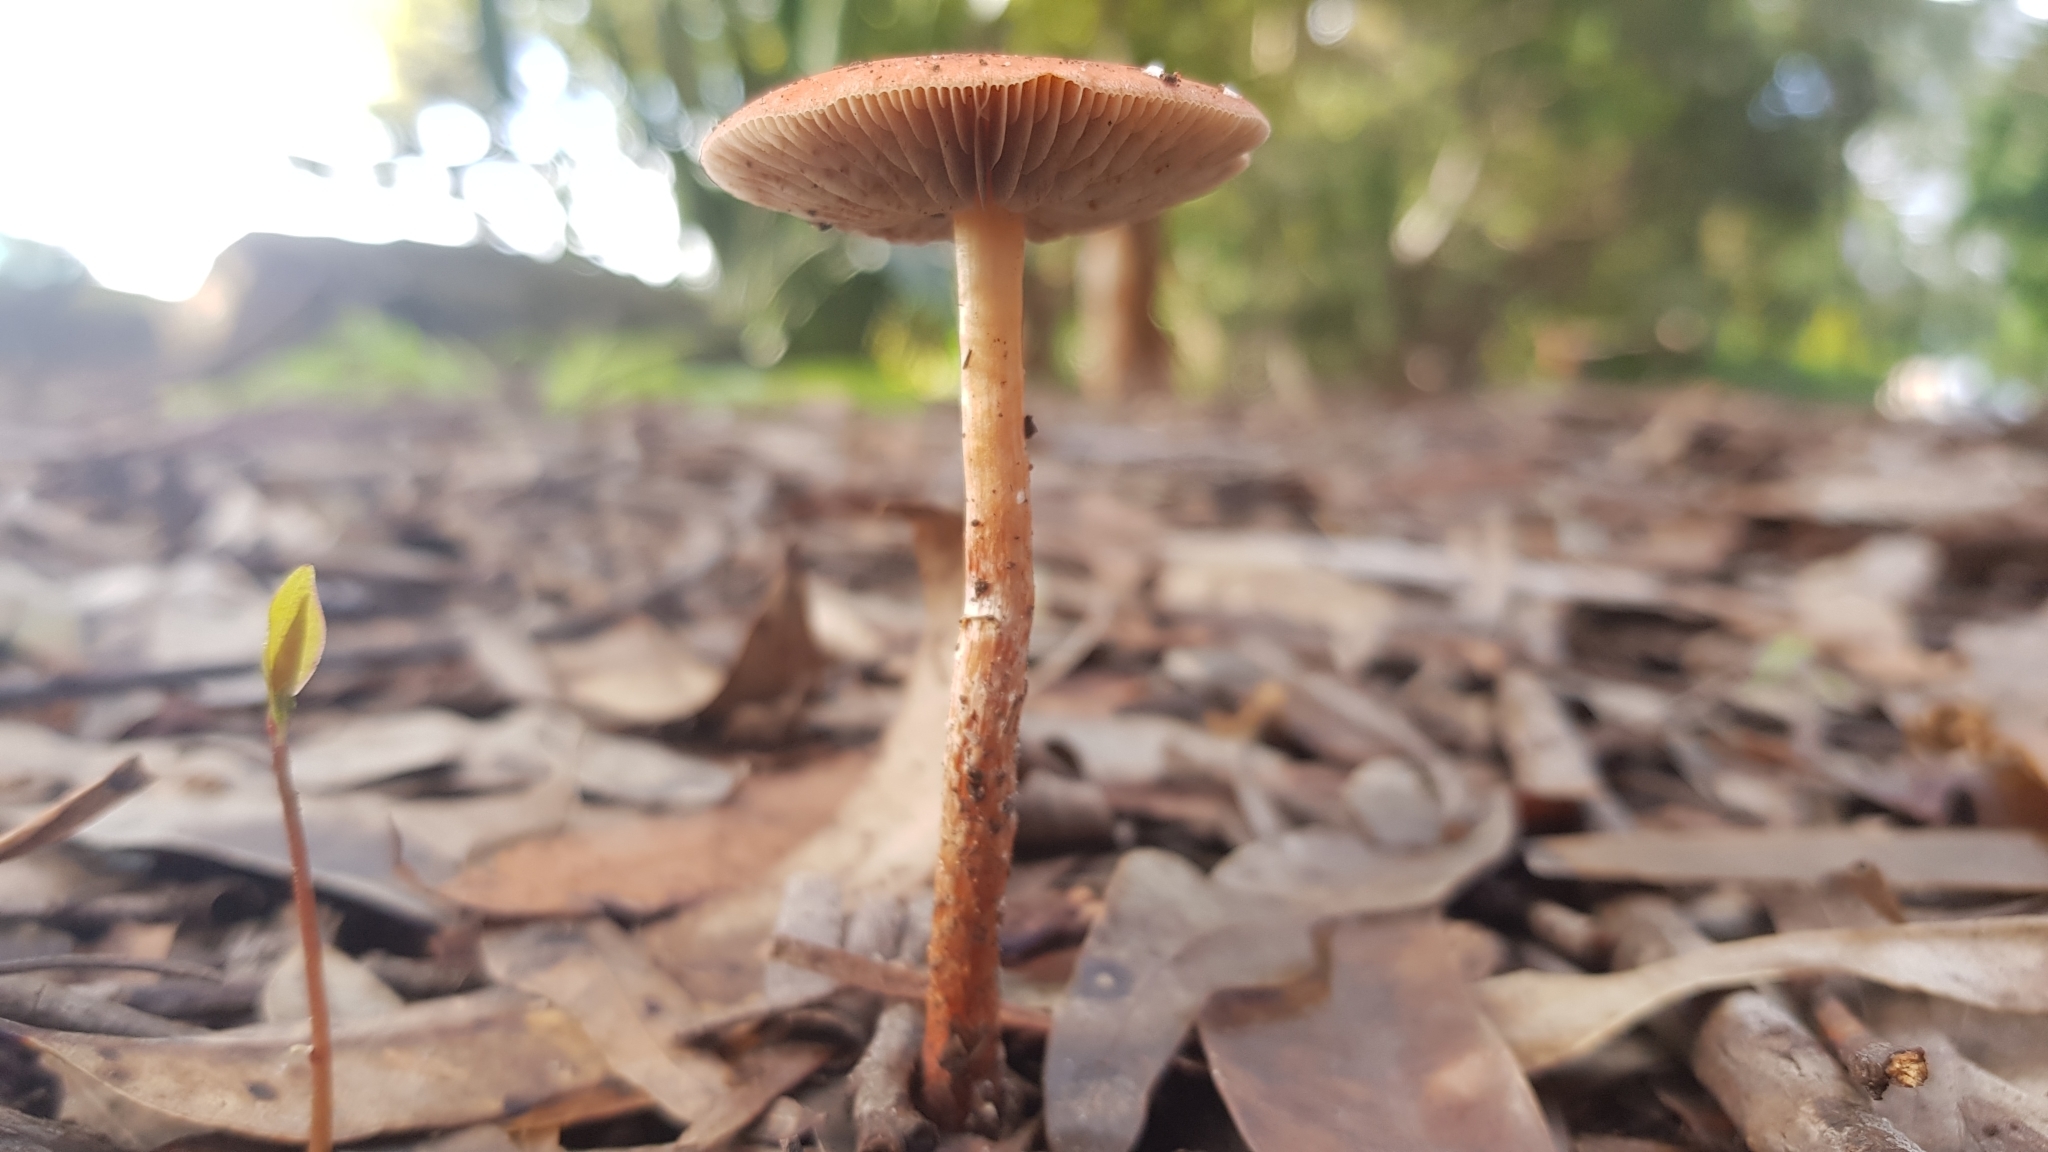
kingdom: Fungi
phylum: Basidiomycota
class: Agaricomycetes
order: Agaricales
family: Strophariaceae
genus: Leratiomyces
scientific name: Leratiomyces ceres
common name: Redlead roundhead
